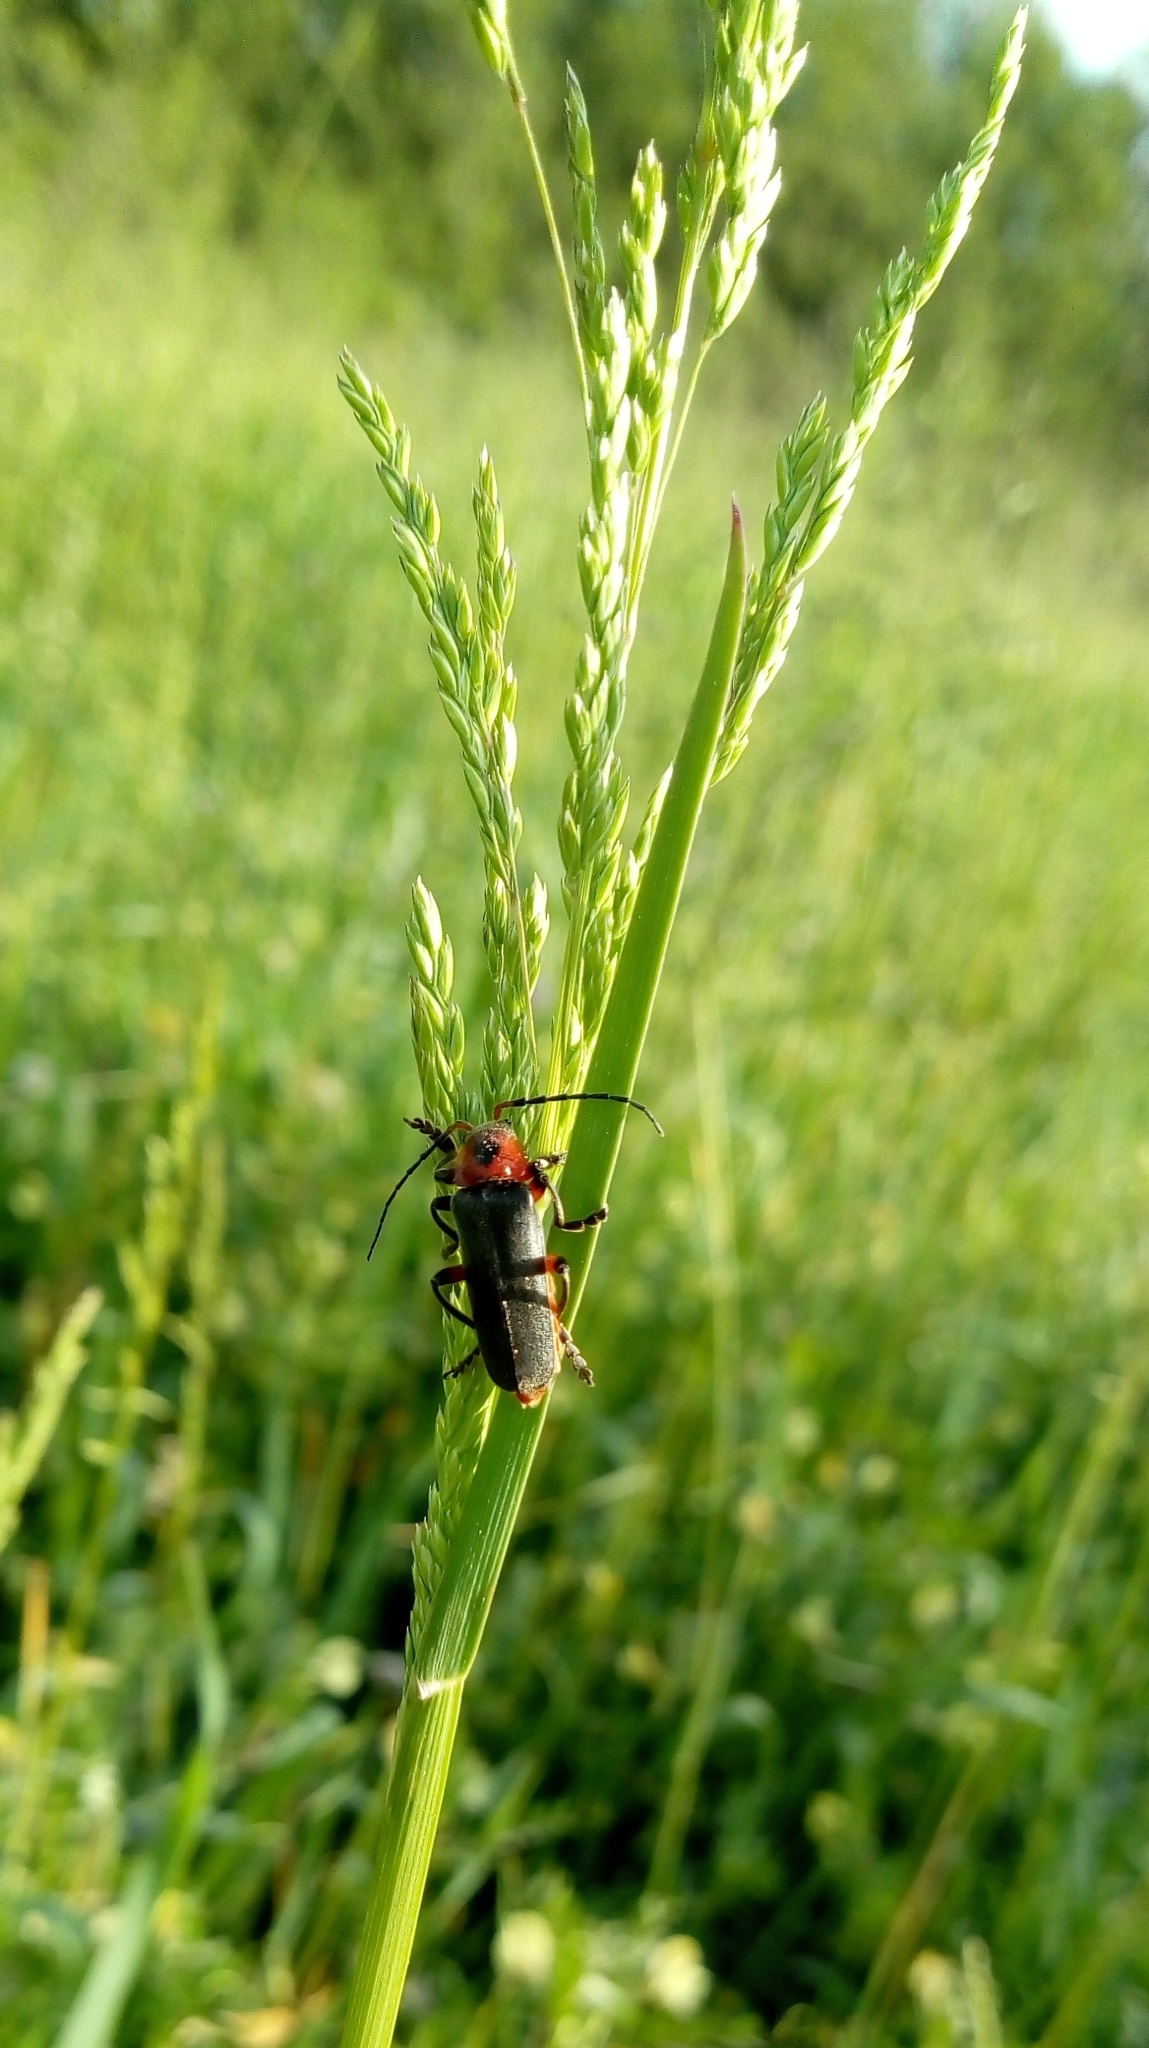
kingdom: Animalia
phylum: Arthropoda
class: Insecta
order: Coleoptera
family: Cantharidae
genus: Cantharis
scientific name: Cantharis rustica
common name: Soldier beetle
